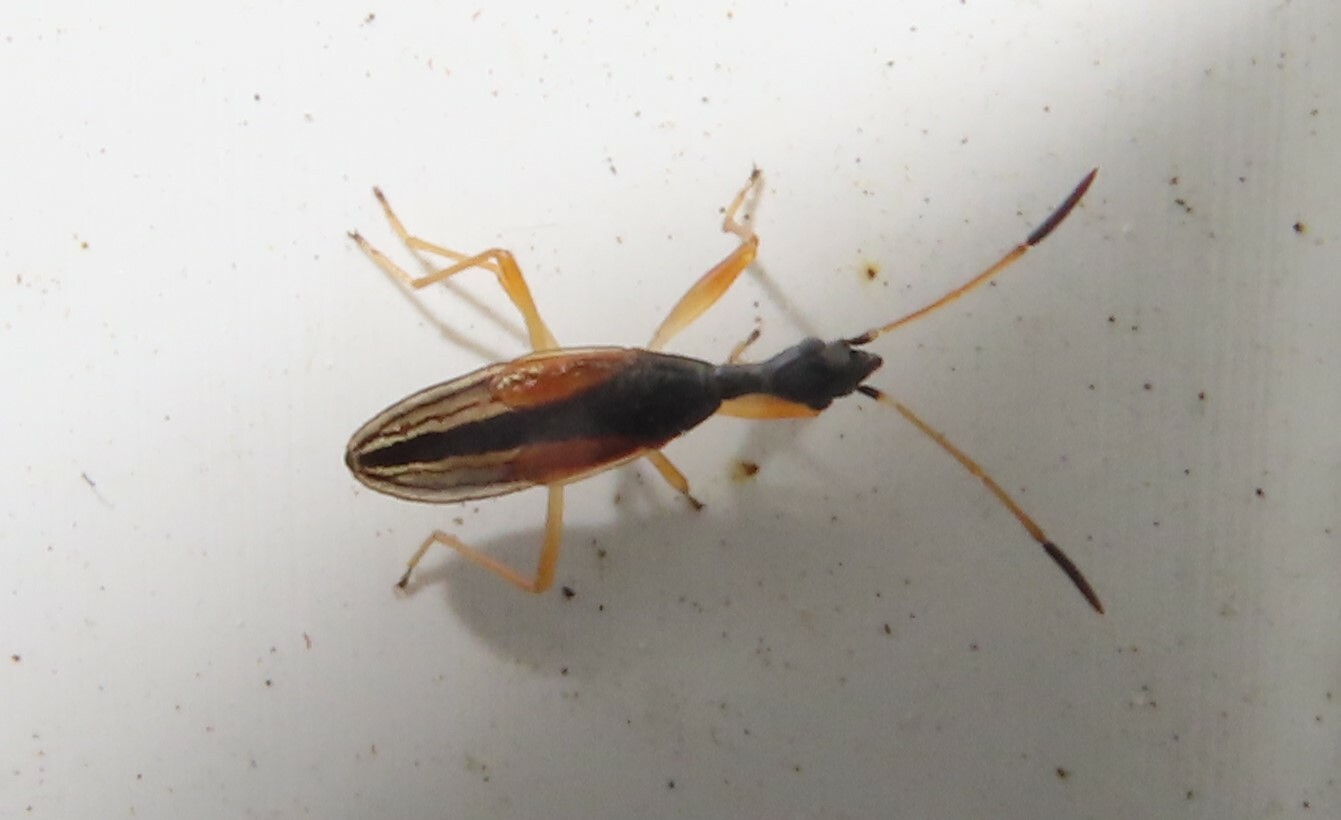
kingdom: Animalia
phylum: Arthropoda
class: Insecta
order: Hemiptera
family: Rhyparochromidae
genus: Myodocha
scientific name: Myodocha serripes
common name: Long-necked seed bug
